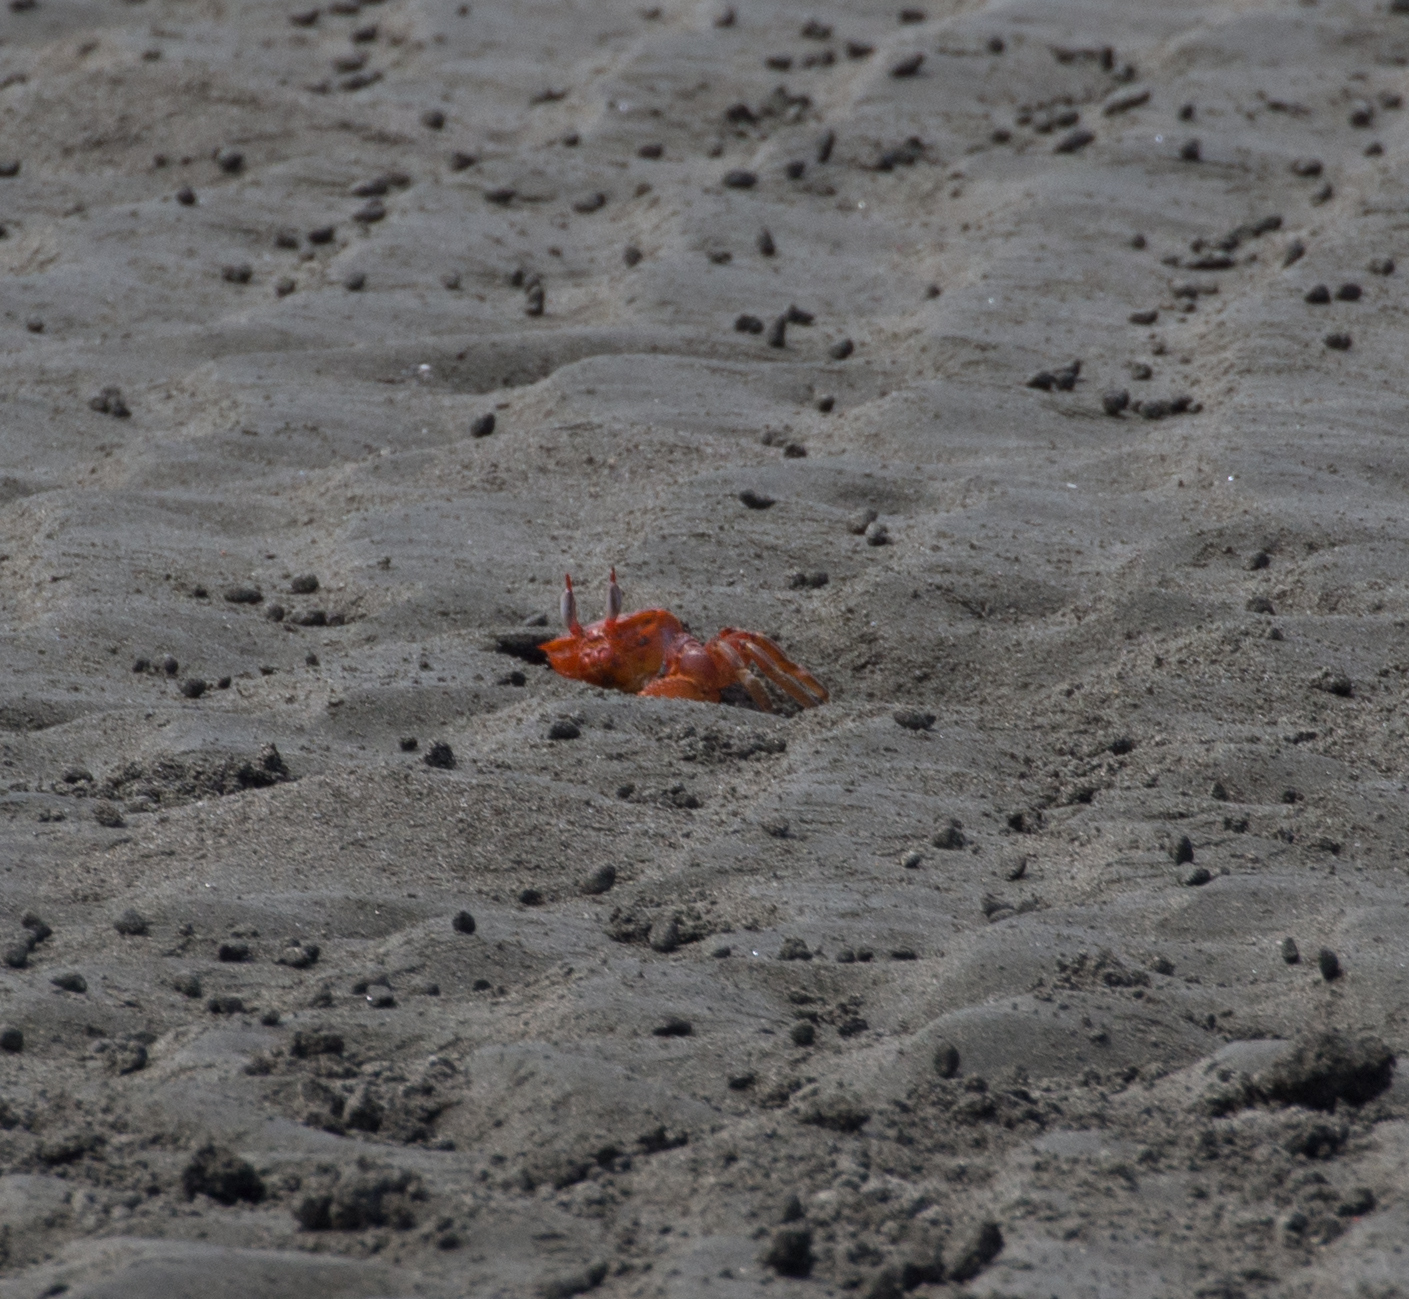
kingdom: Animalia
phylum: Arthropoda
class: Malacostraca
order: Decapoda
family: Ocypodidae
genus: Ocypode
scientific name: Ocypode gaudichaudii
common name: Pacific ghost crab
